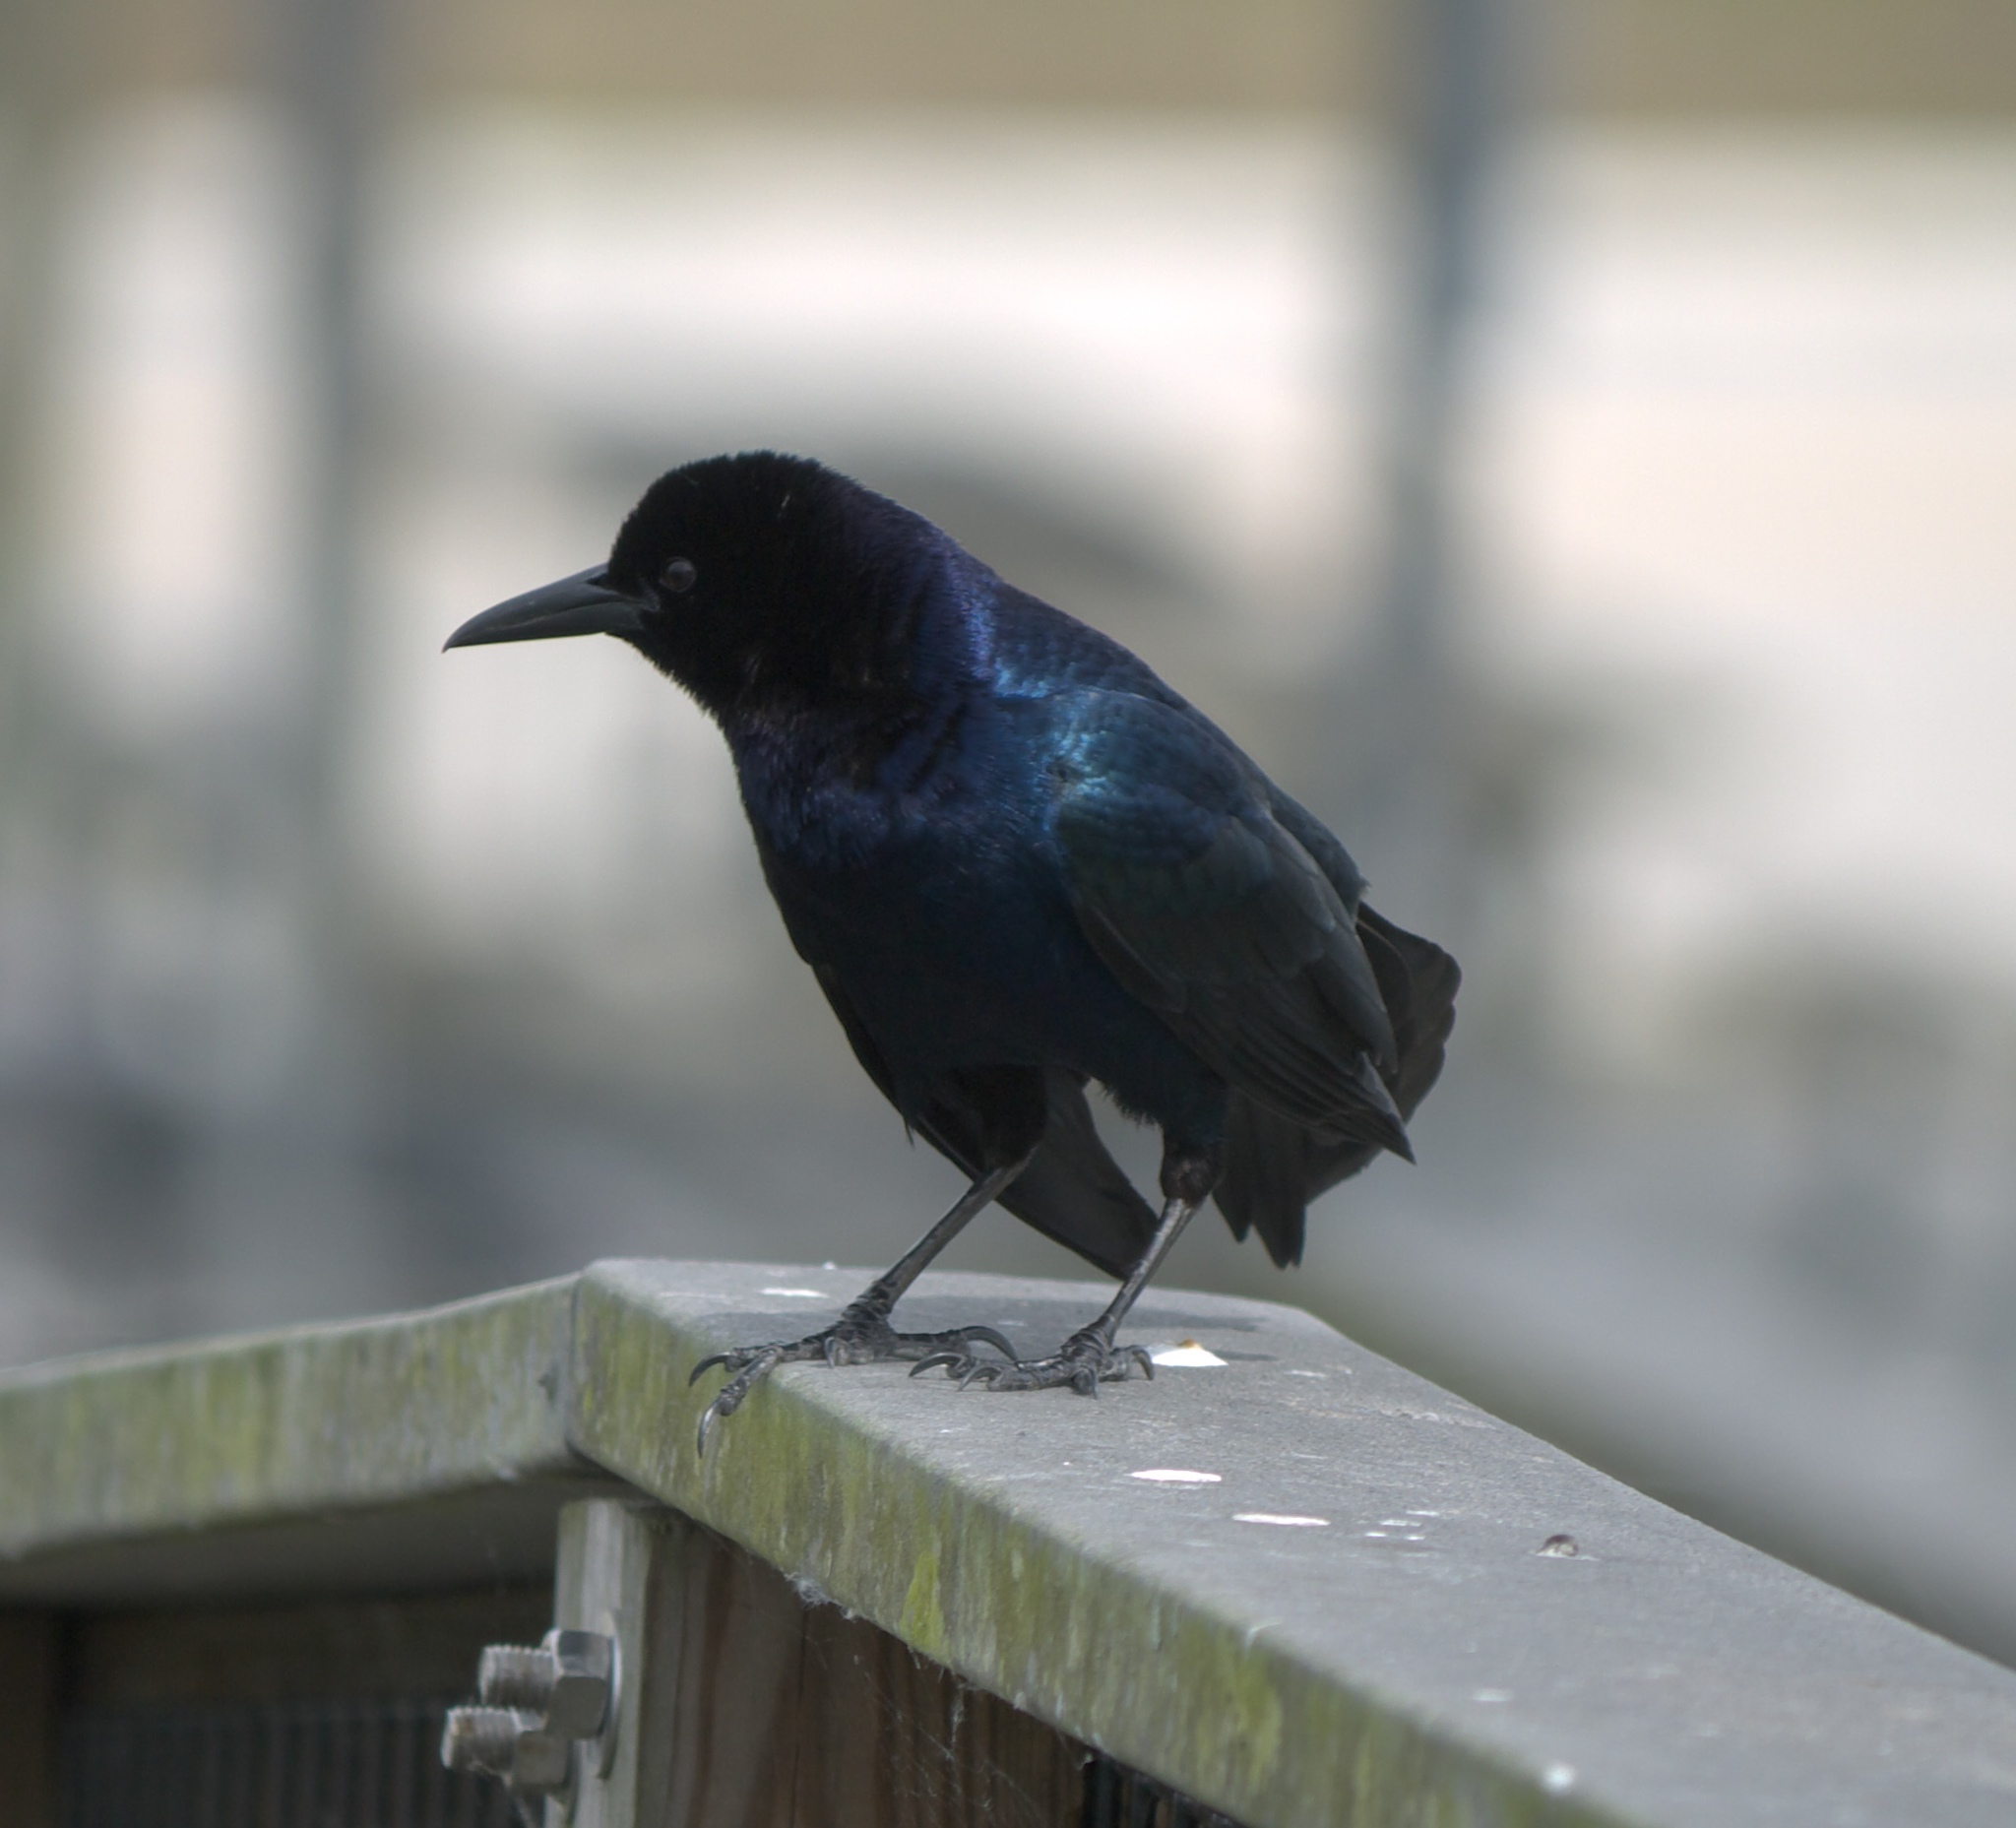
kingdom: Animalia
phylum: Chordata
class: Aves
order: Passeriformes
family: Icteridae
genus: Quiscalus
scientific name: Quiscalus major
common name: Boat-tailed grackle
